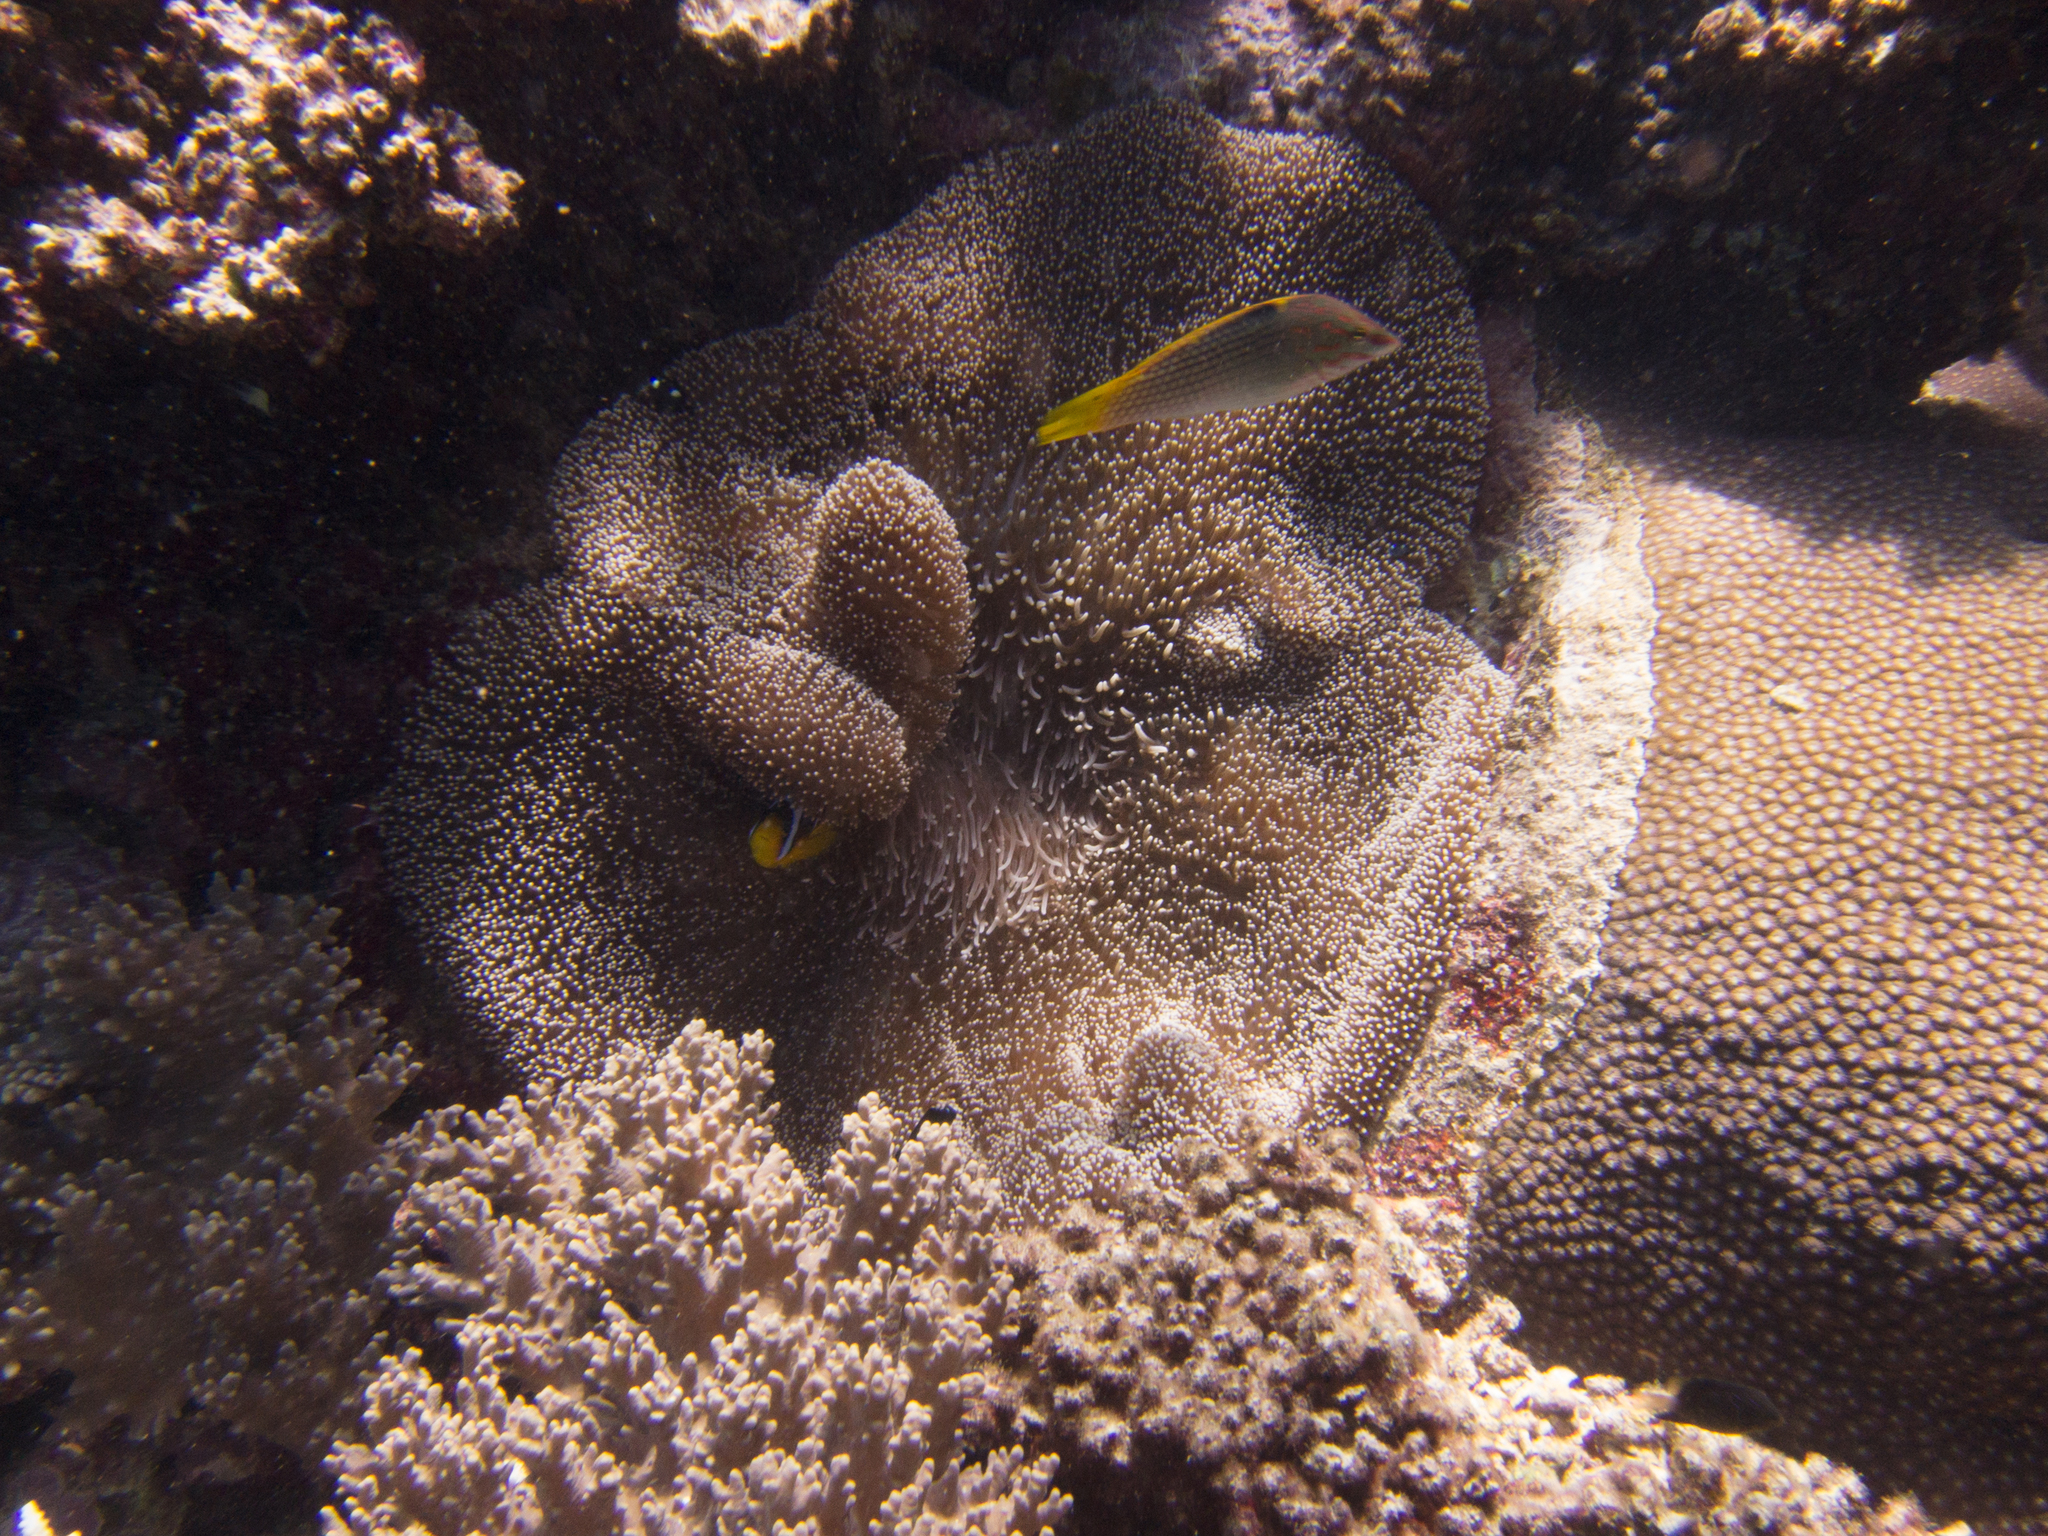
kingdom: Animalia
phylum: Cnidaria
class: Anthozoa
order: Scleractinia
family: Diploastraeidae
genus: Diploastrea
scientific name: Diploastrea heliopora
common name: Double-star coral
